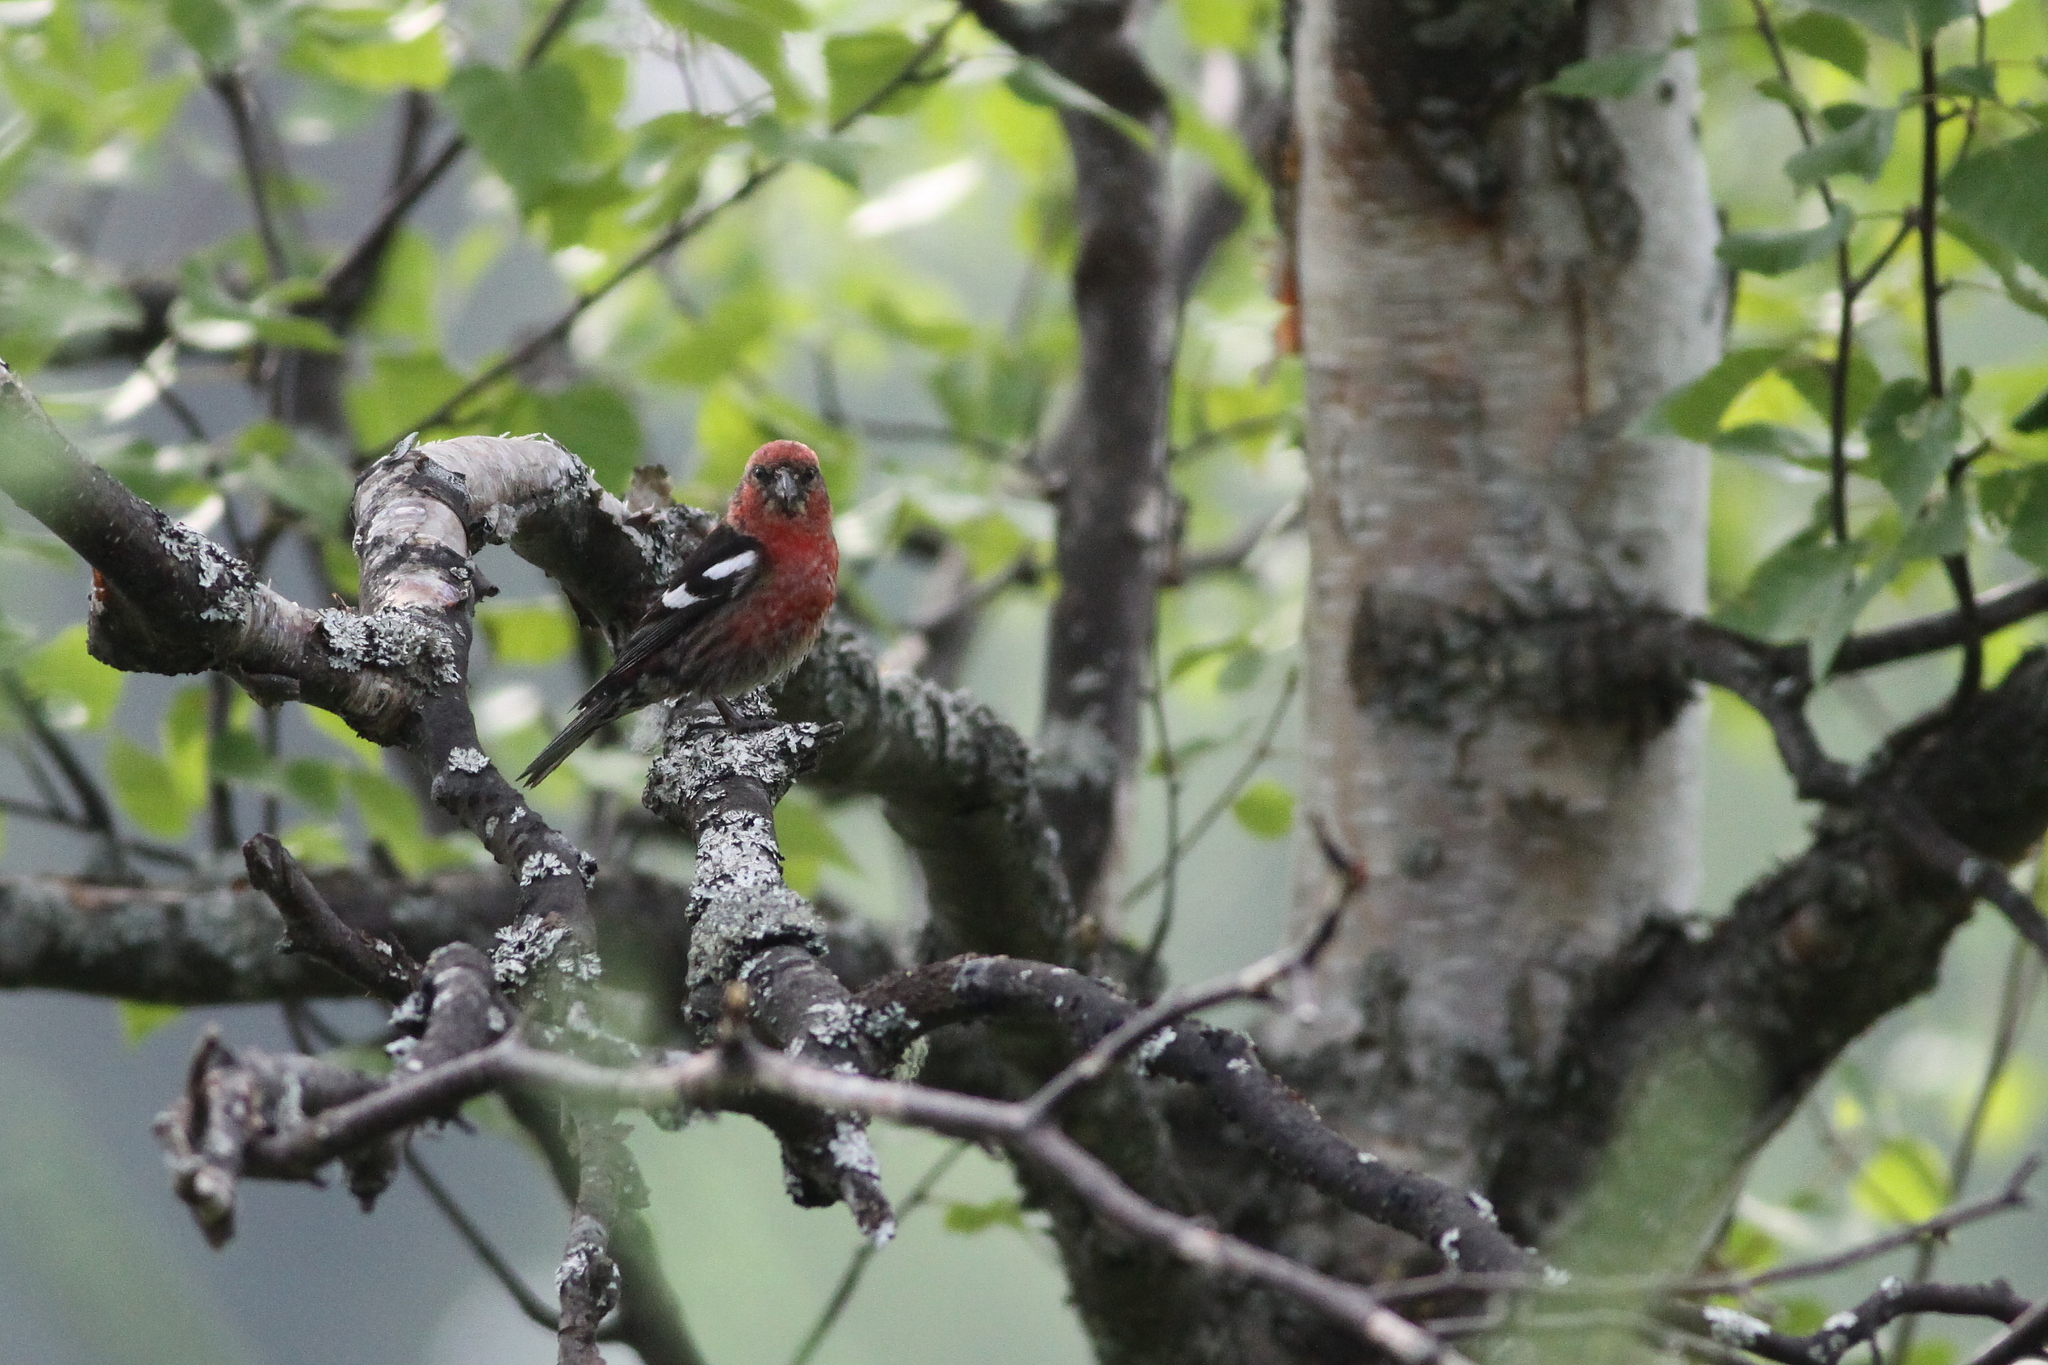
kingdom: Animalia
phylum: Chordata
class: Aves
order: Passeriformes
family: Fringillidae
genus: Loxia
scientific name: Loxia leucoptera
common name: Two-barred crossbill
